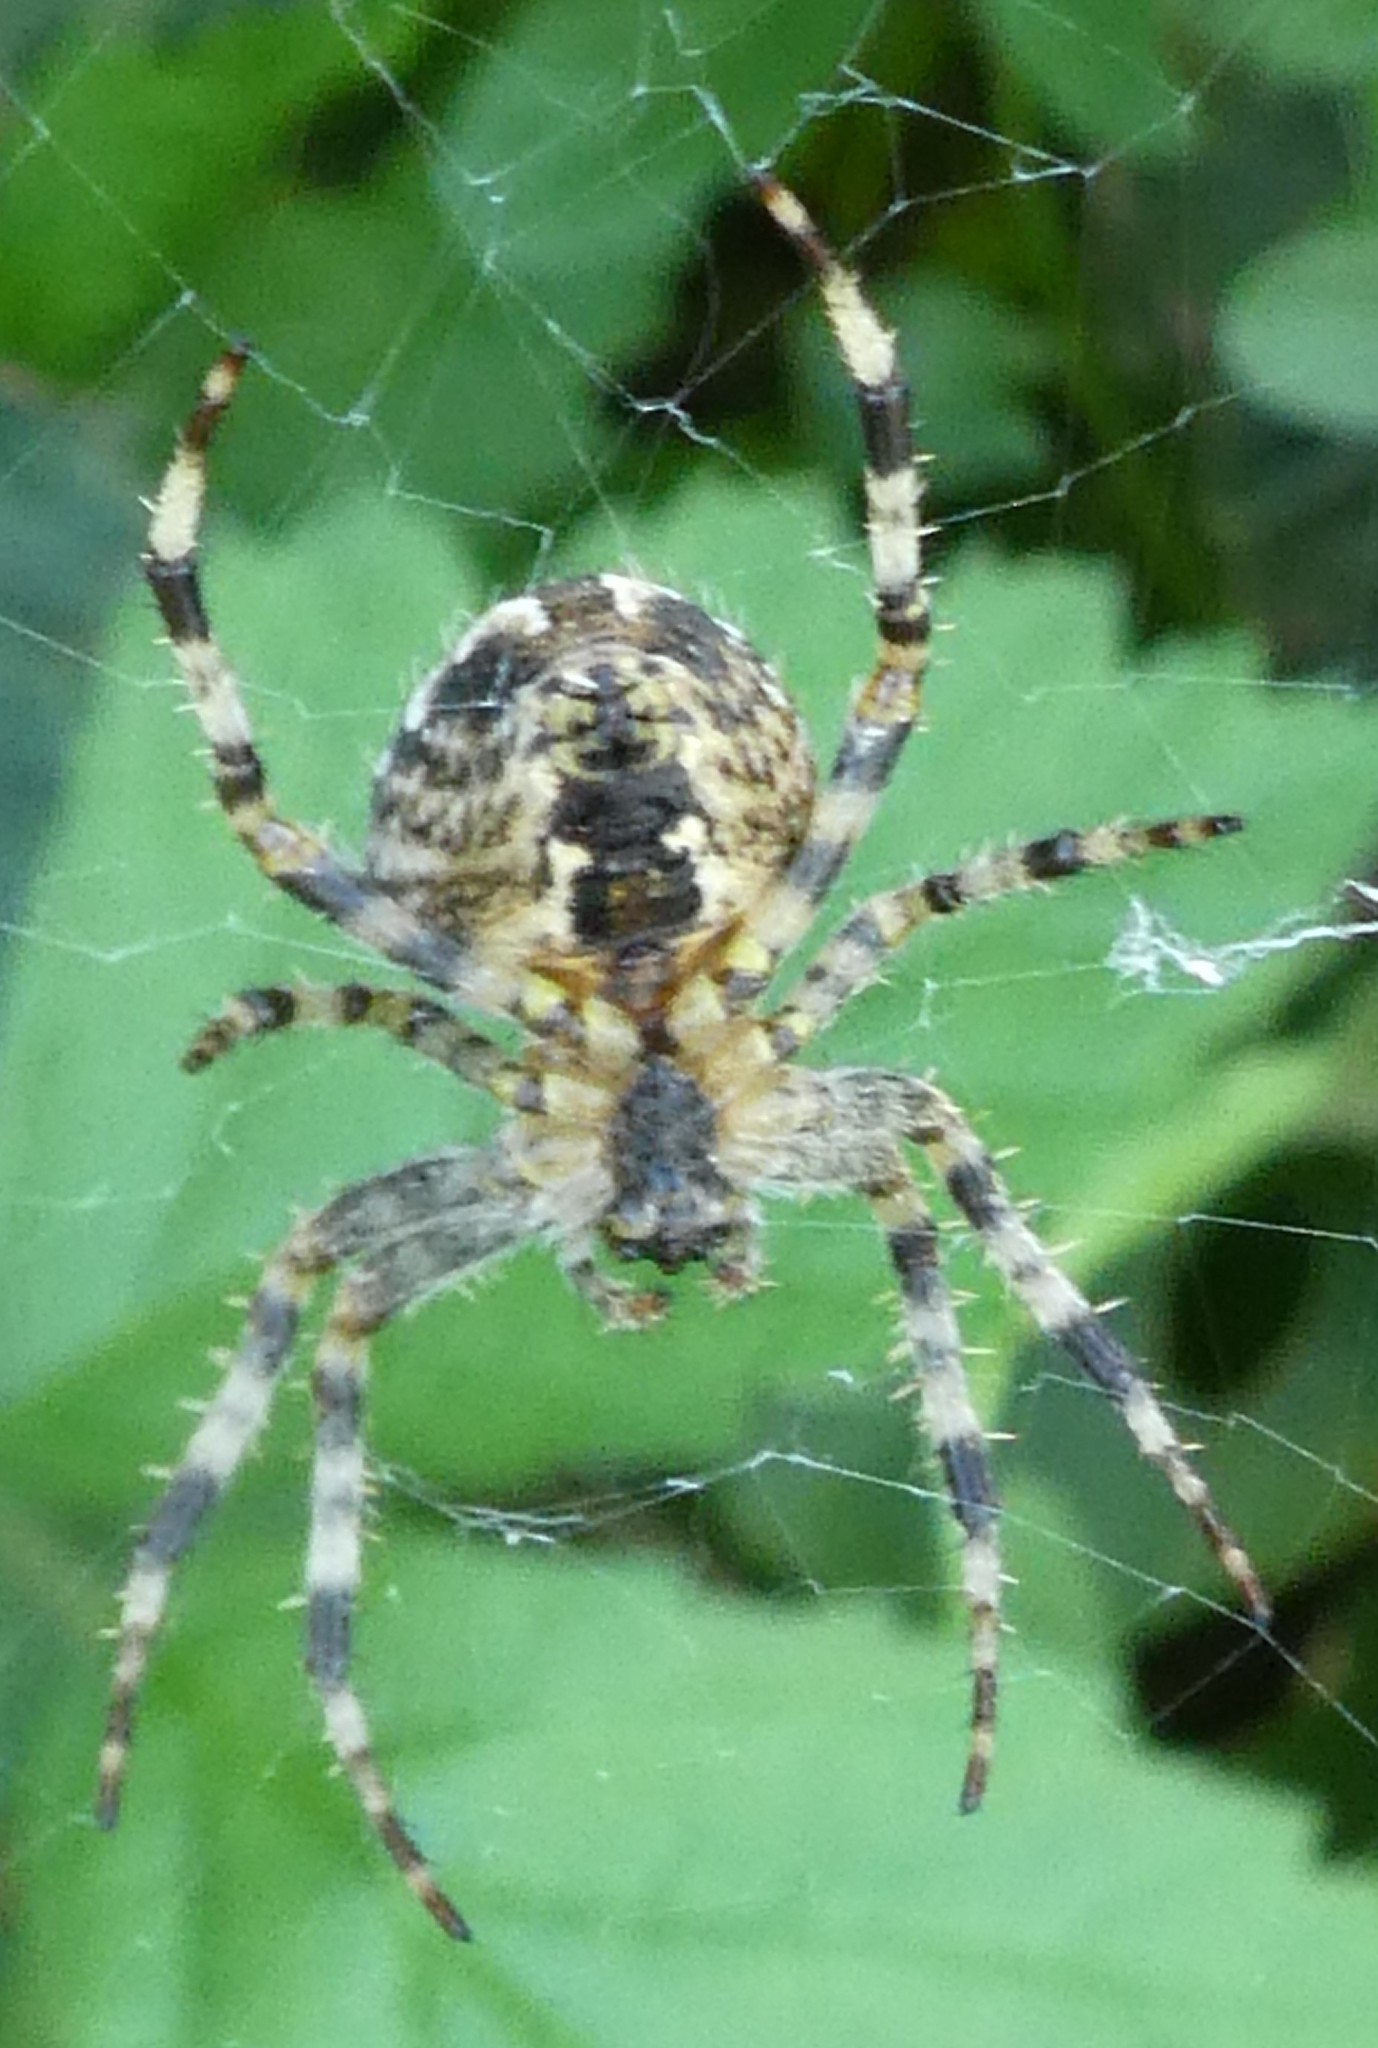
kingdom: Animalia
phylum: Arthropoda
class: Arachnida
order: Araneae
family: Araneidae
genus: Araneus
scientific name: Araneus diadematus
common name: Cross orbweaver
